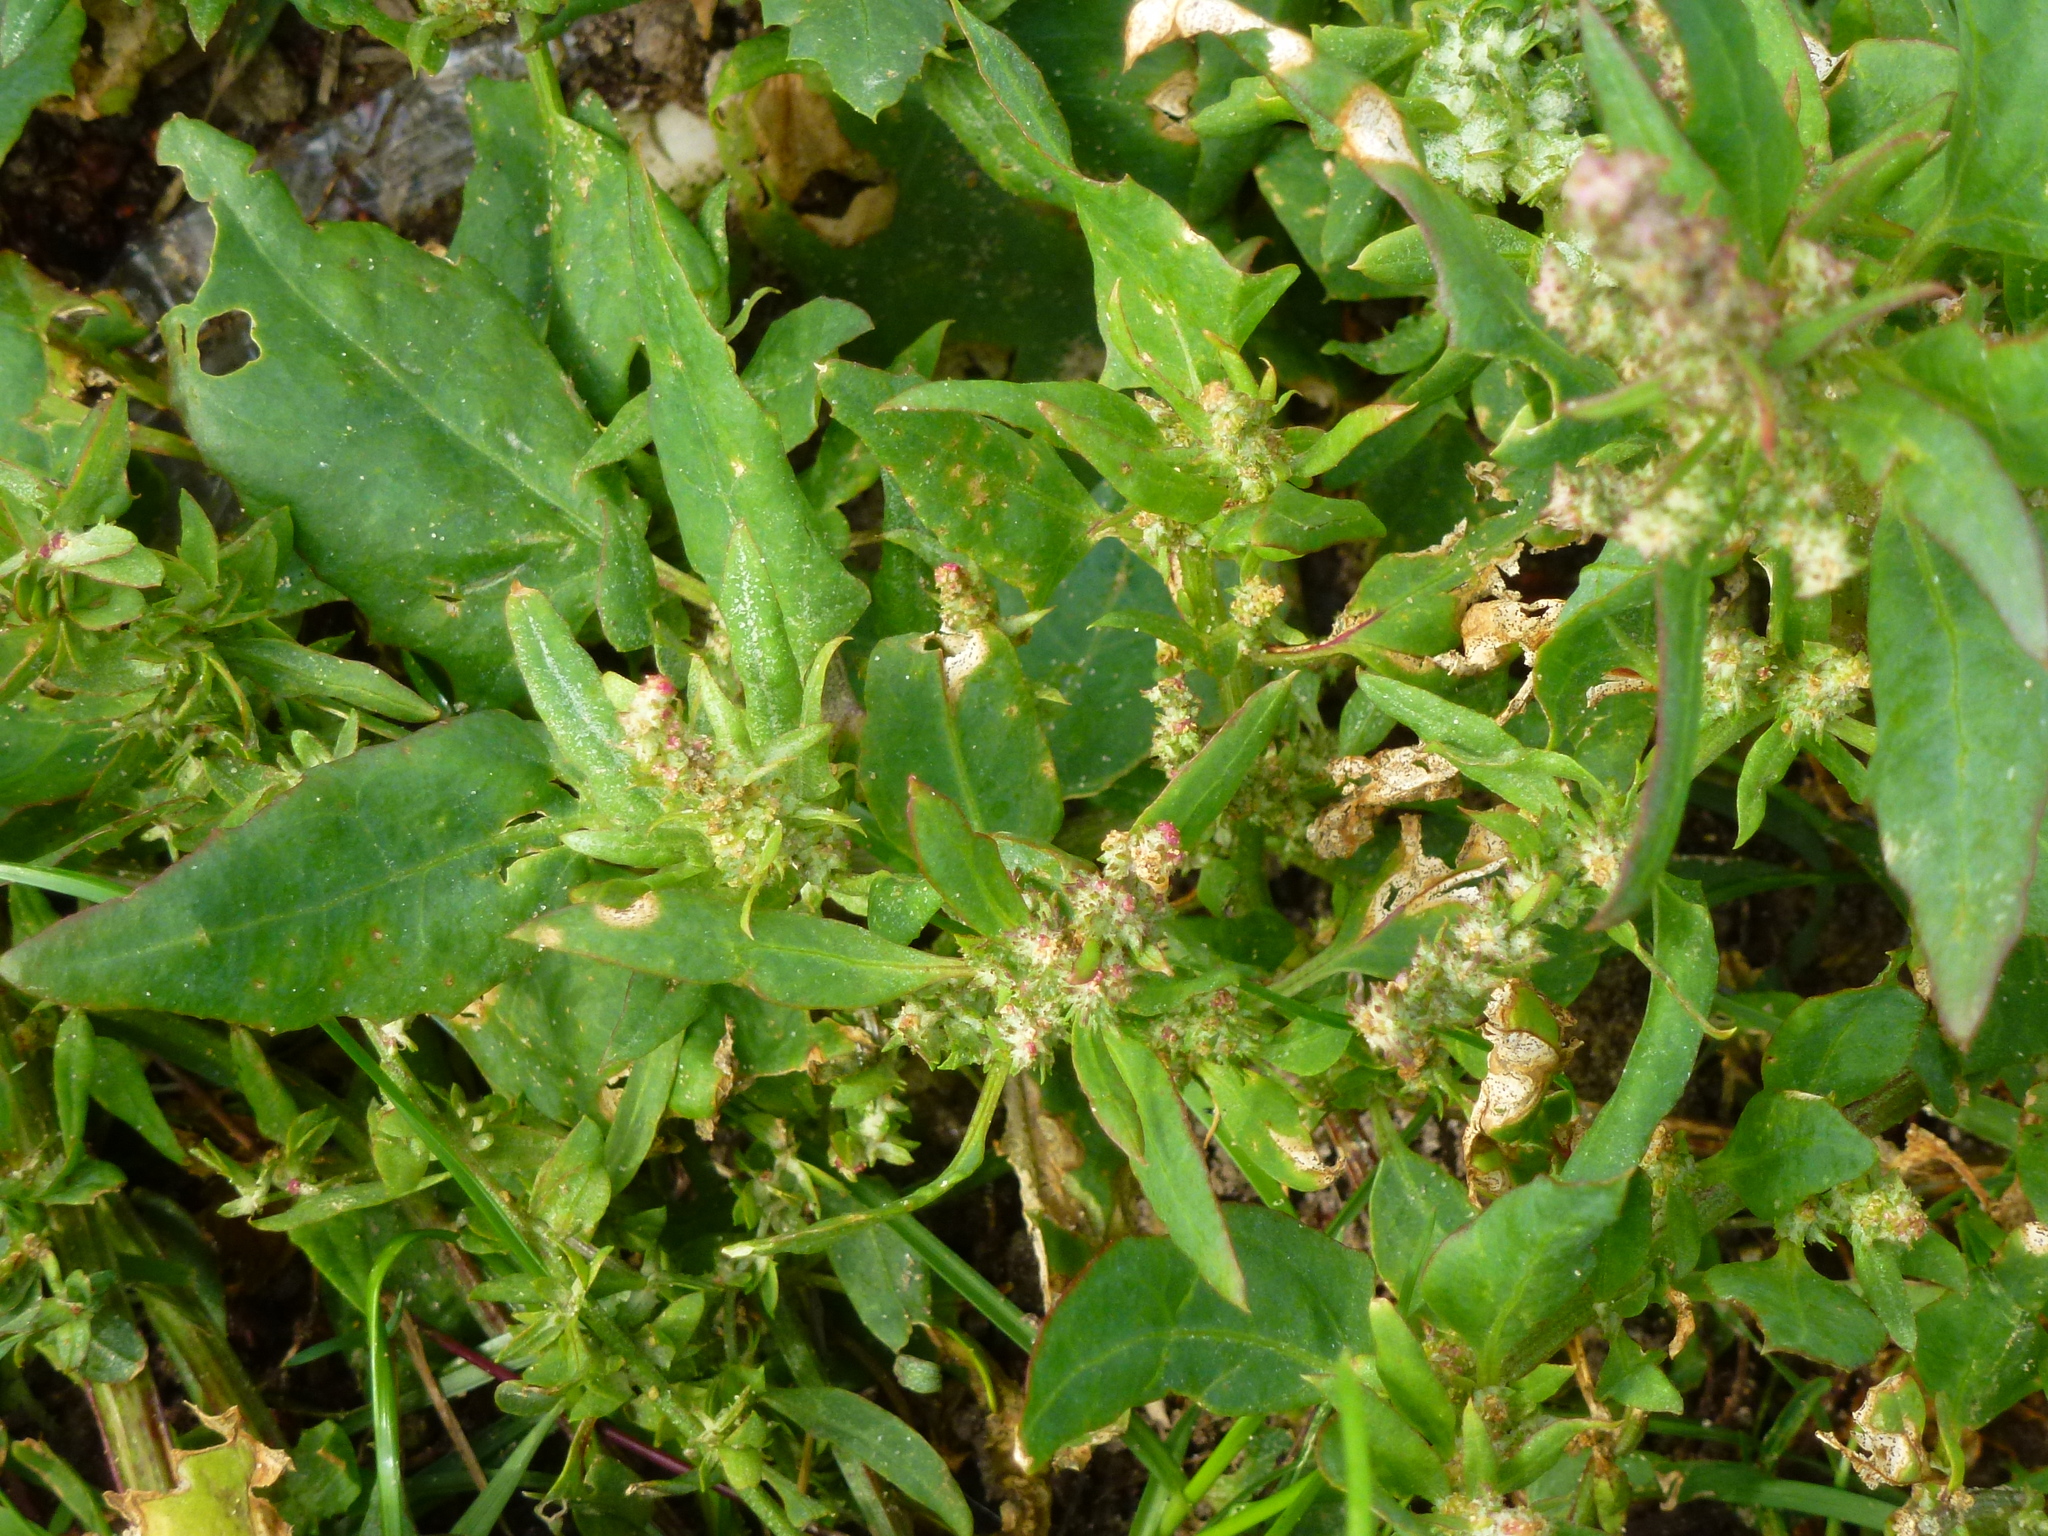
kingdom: Plantae
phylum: Tracheophyta
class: Magnoliopsida
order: Caryophyllales
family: Amaranthaceae
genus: Atriplex
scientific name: Atriplex prostrata
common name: Spear-leaved orache
